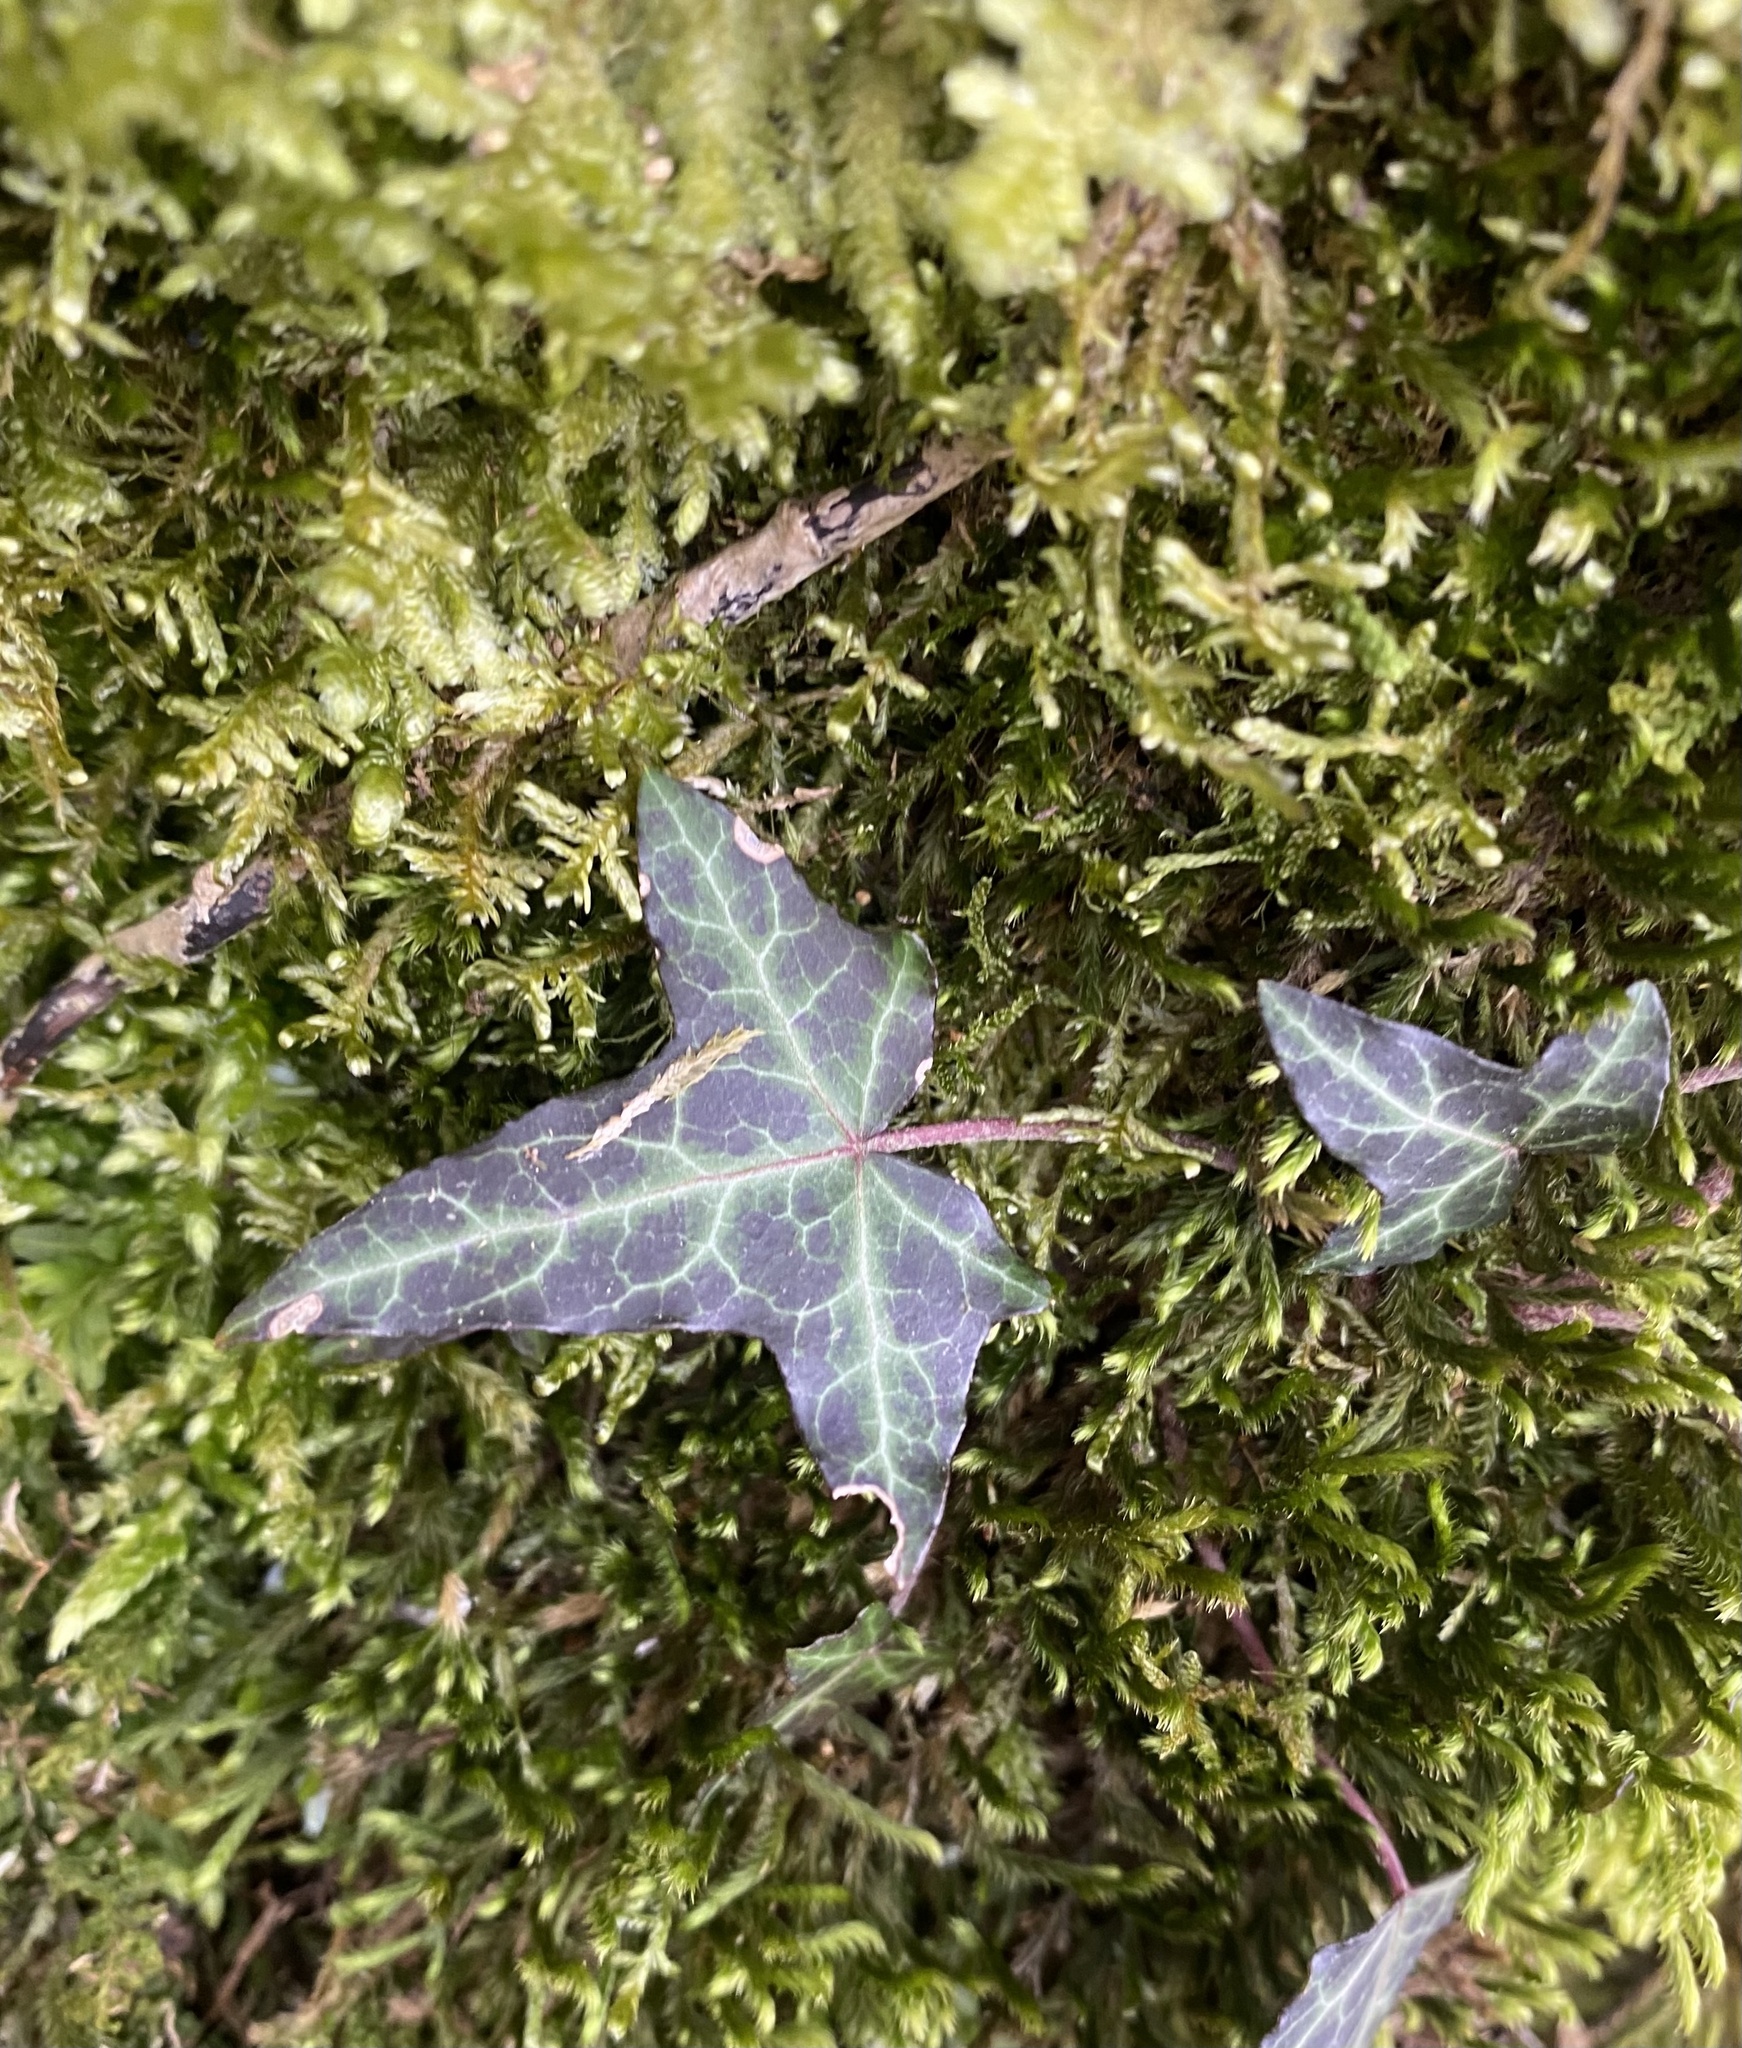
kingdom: Plantae
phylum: Tracheophyta
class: Magnoliopsida
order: Apiales
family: Araliaceae
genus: Hedera
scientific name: Hedera helix
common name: Ivy
